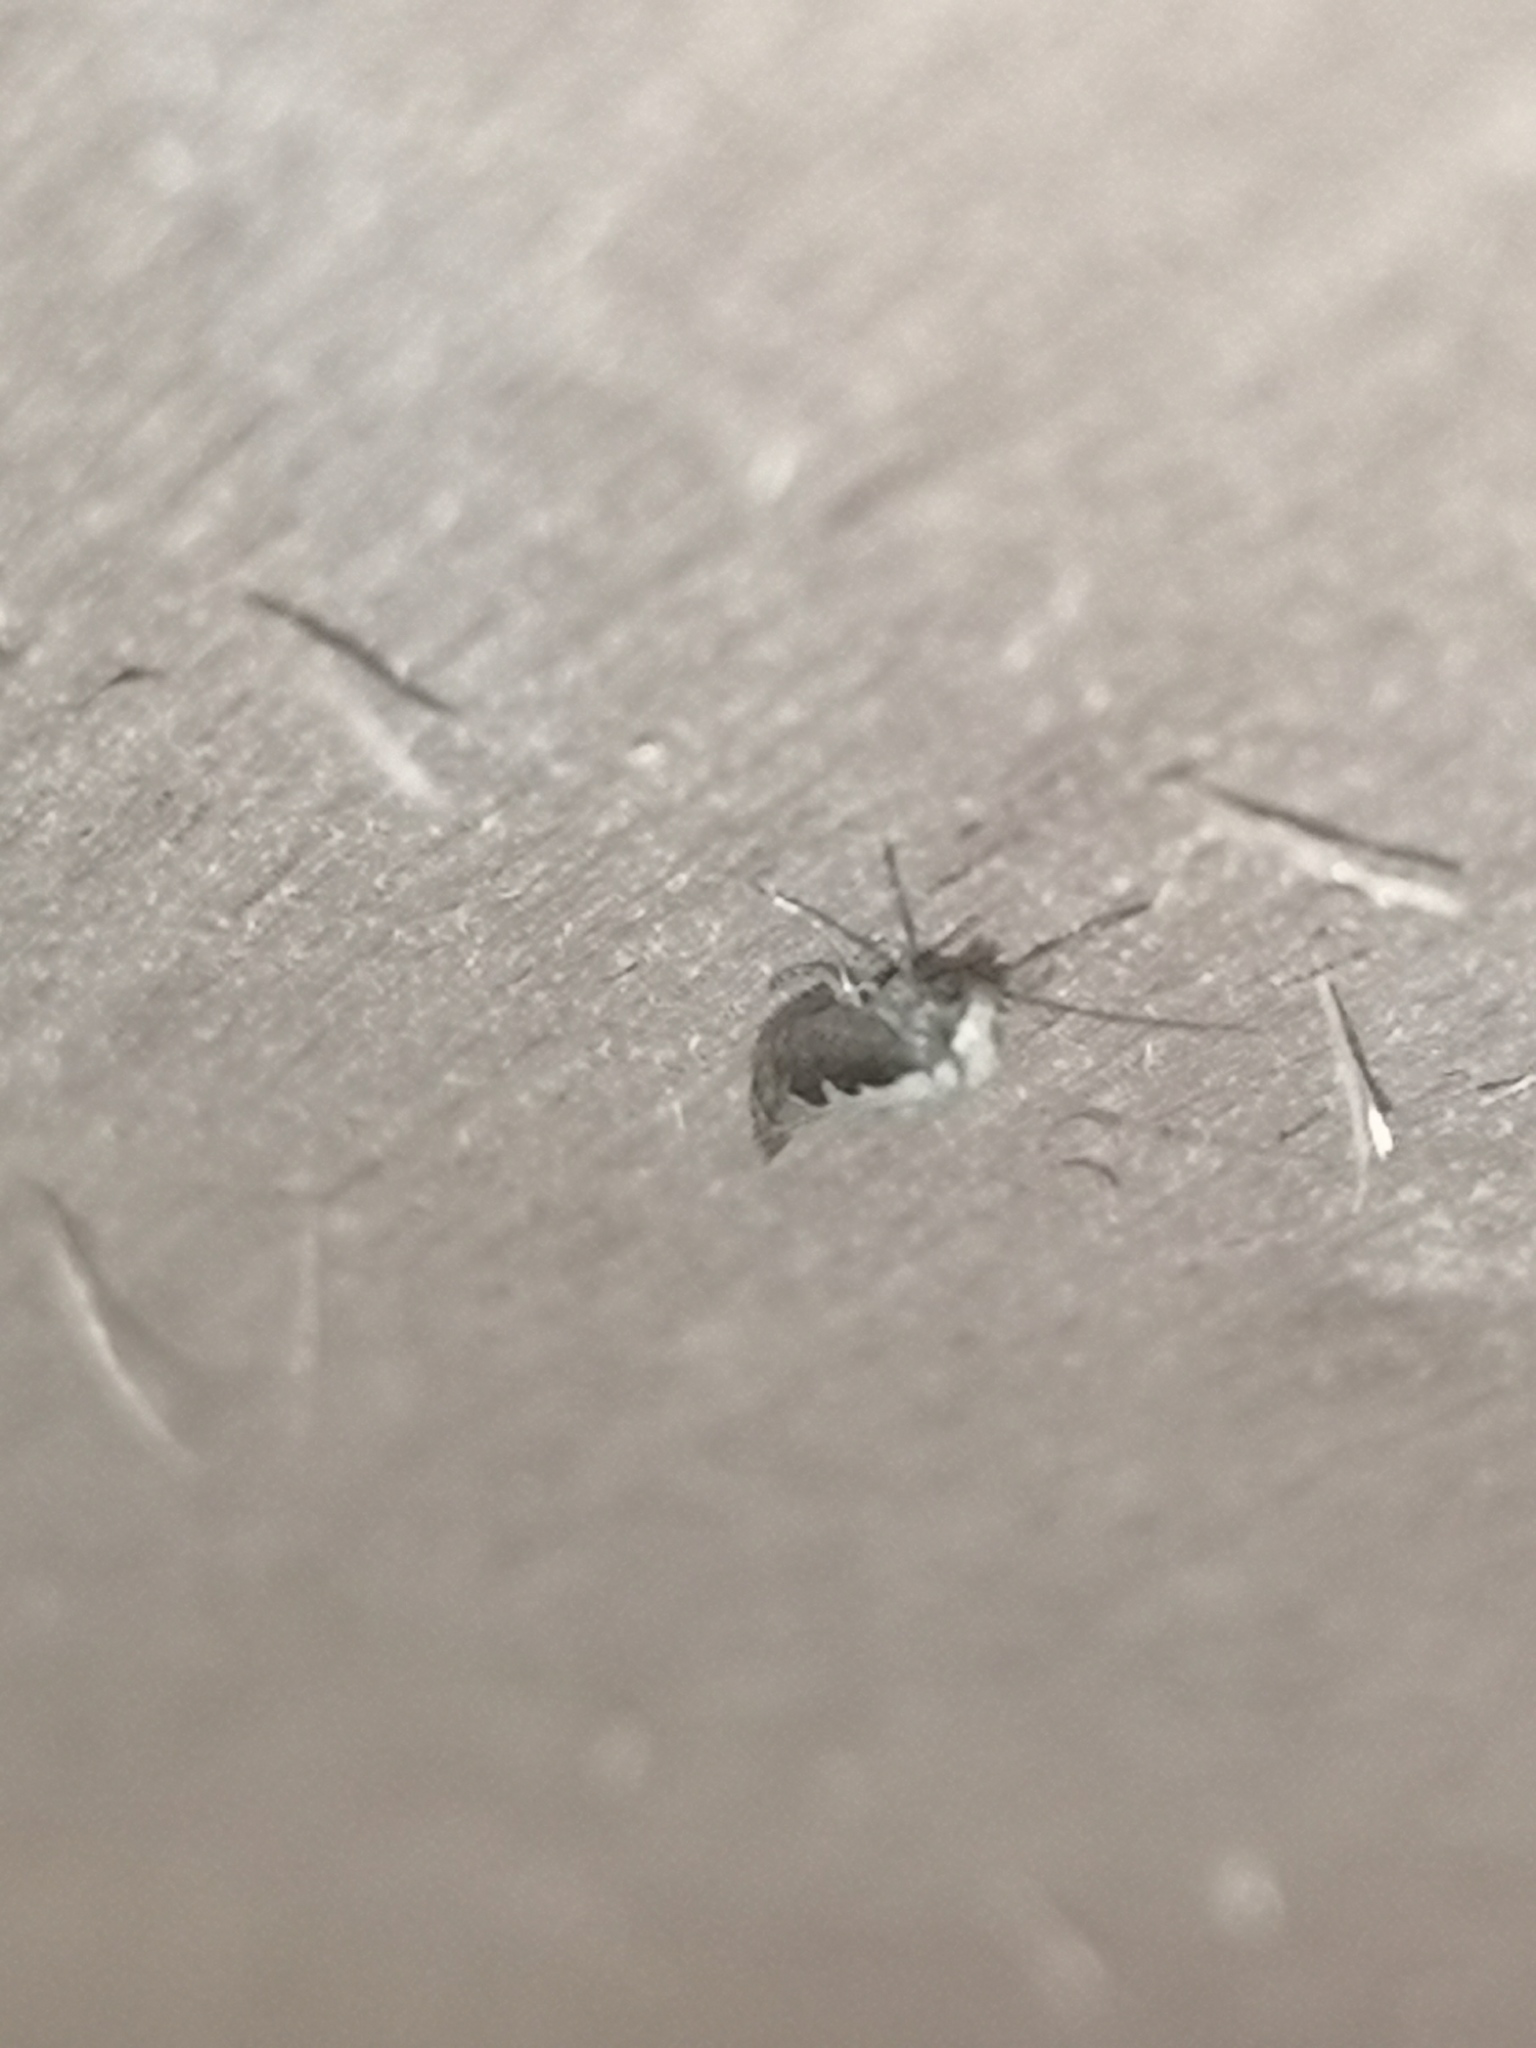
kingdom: Animalia
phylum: Arthropoda
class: Insecta
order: Lepidoptera
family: Plutellidae
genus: Plutella
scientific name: Plutella xylostella
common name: Diamond-back moth
